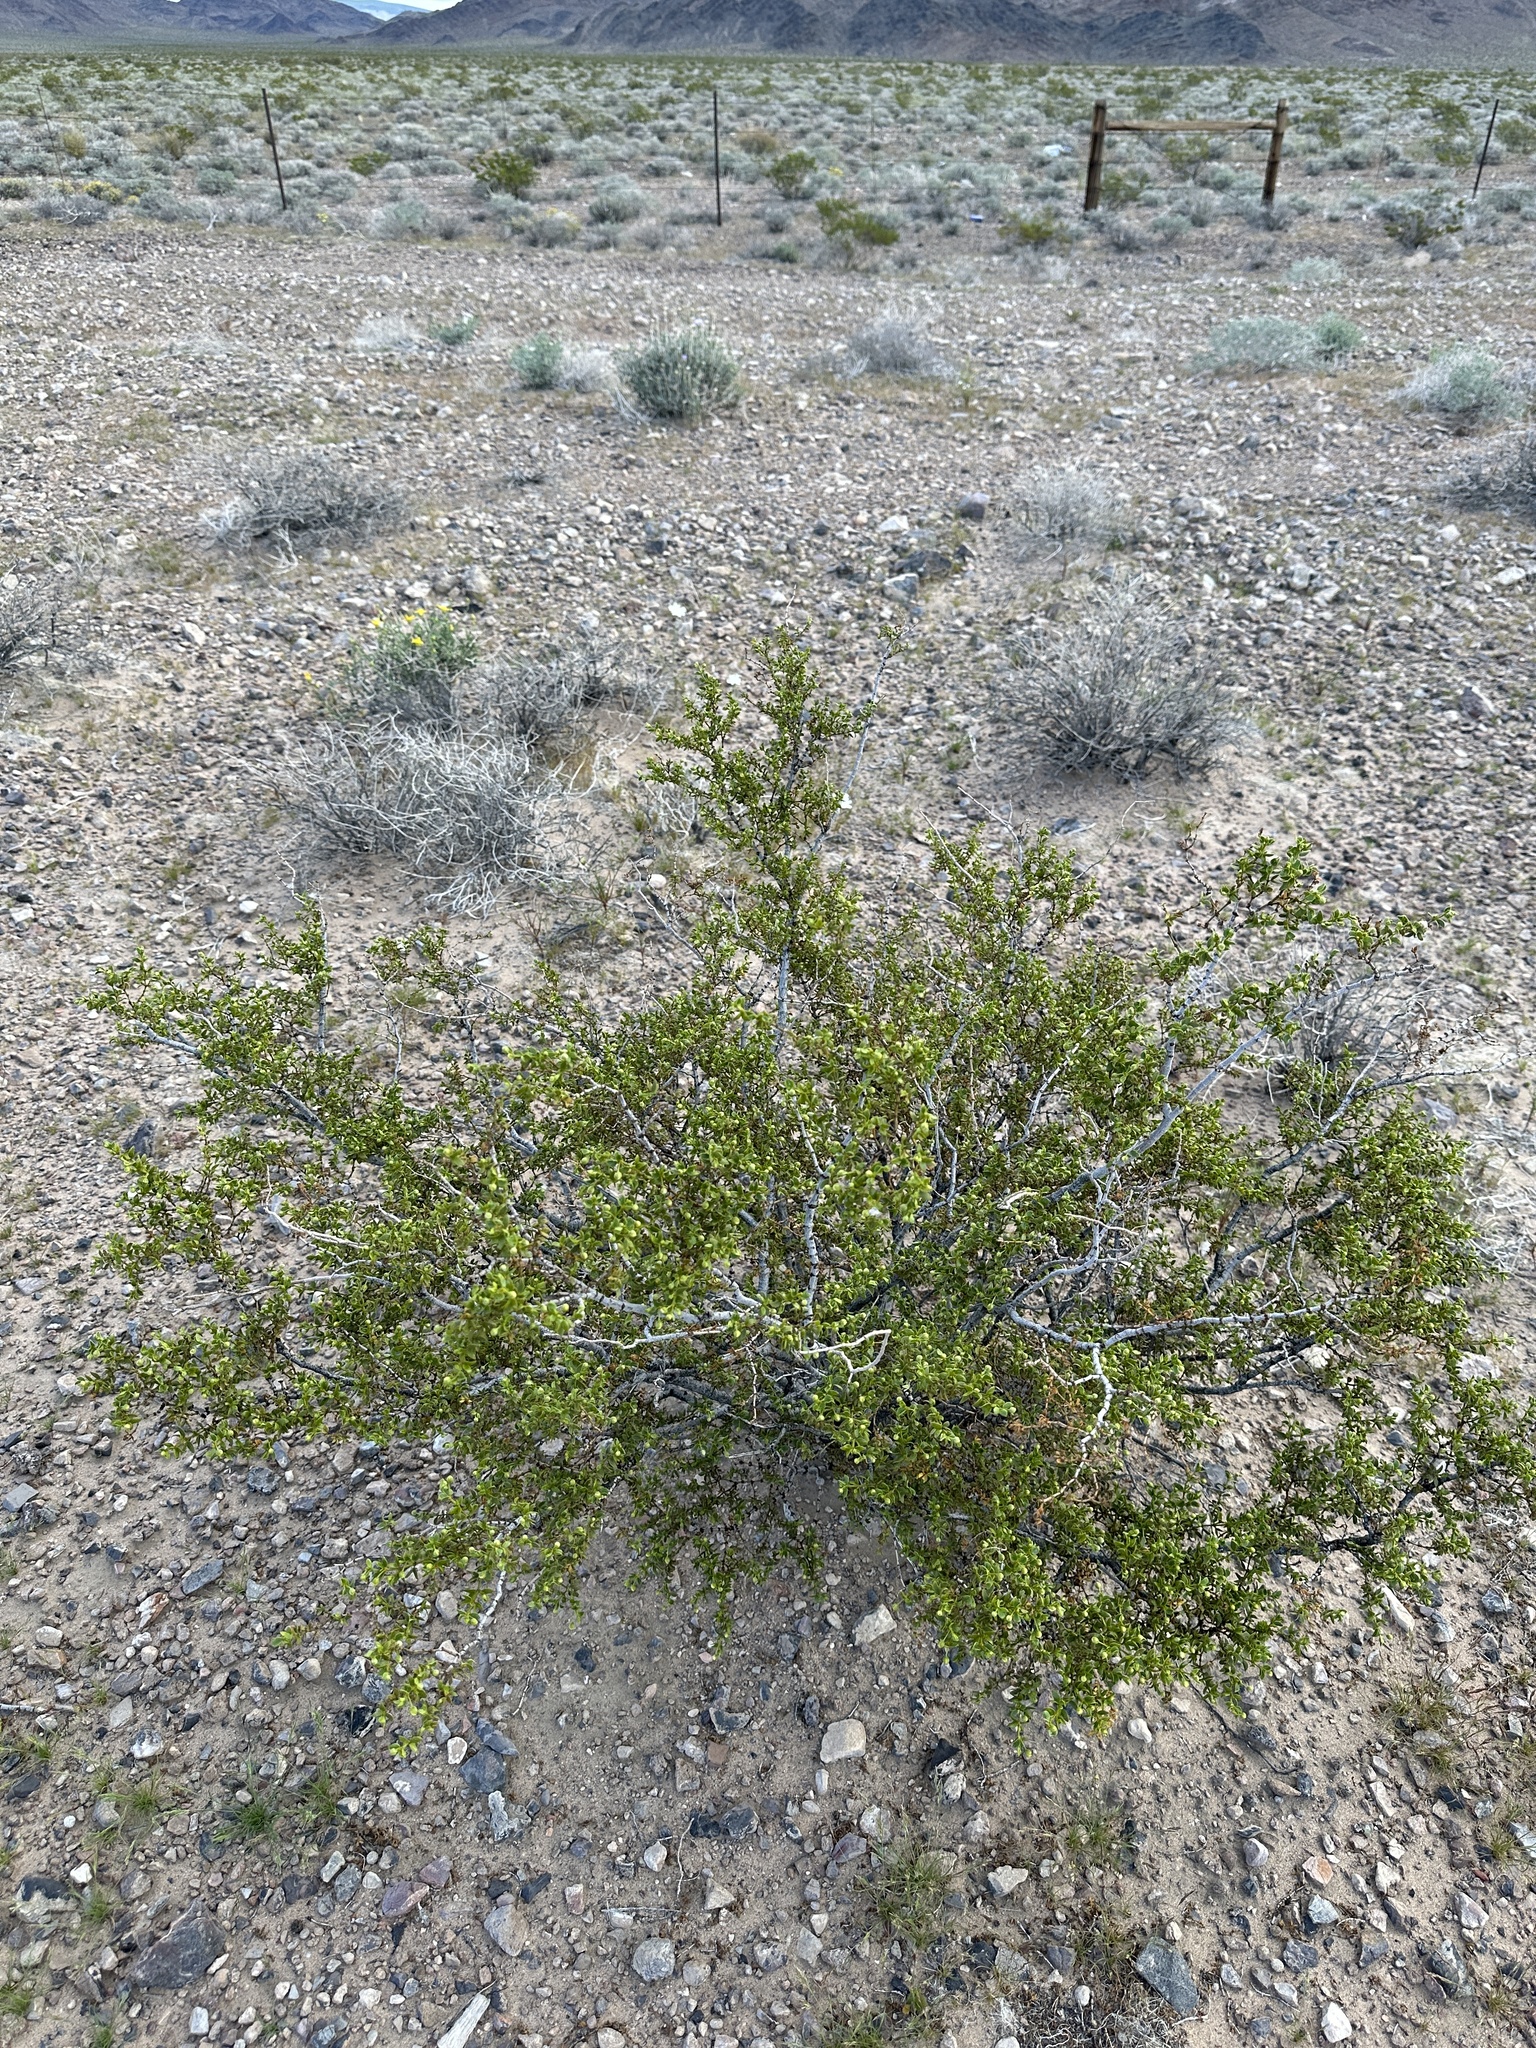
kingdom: Plantae
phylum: Tracheophyta
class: Magnoliopsida
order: Zygophyllales
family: Zygophyllaceae
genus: Larrea
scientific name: Larrea tridentata
